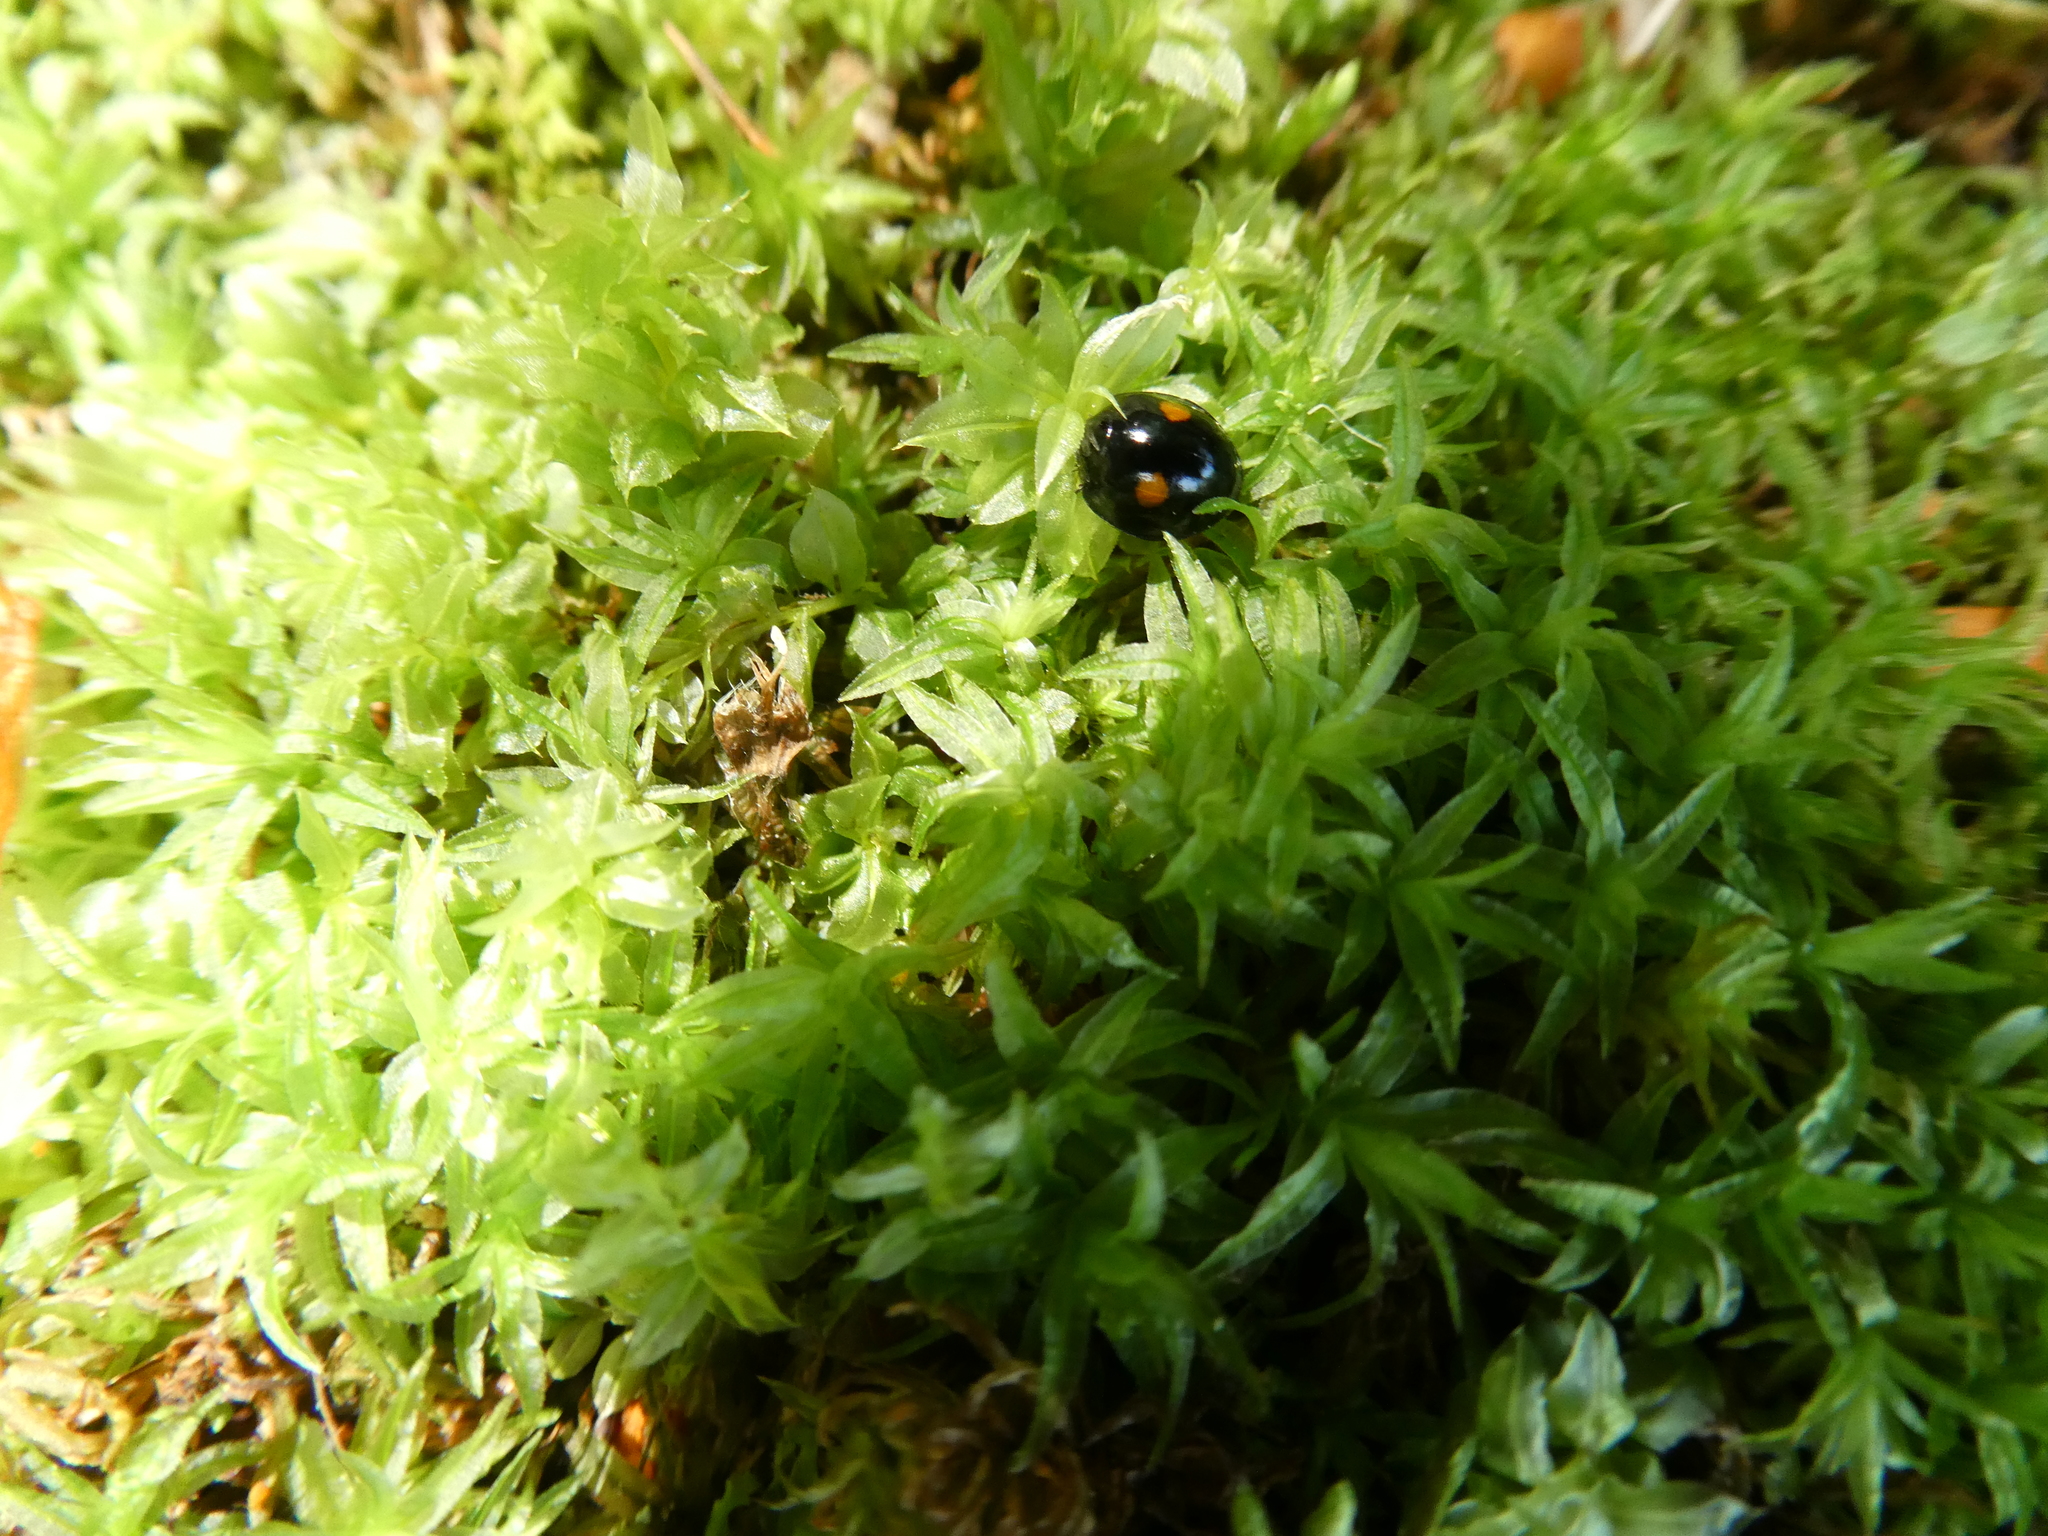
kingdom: Animalia
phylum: Arthropoda
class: Insecta
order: Coleoptera
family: Coccinellidae
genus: Chilocorus
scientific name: Chilocorus stigma
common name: Twicestabbed lady beetle
